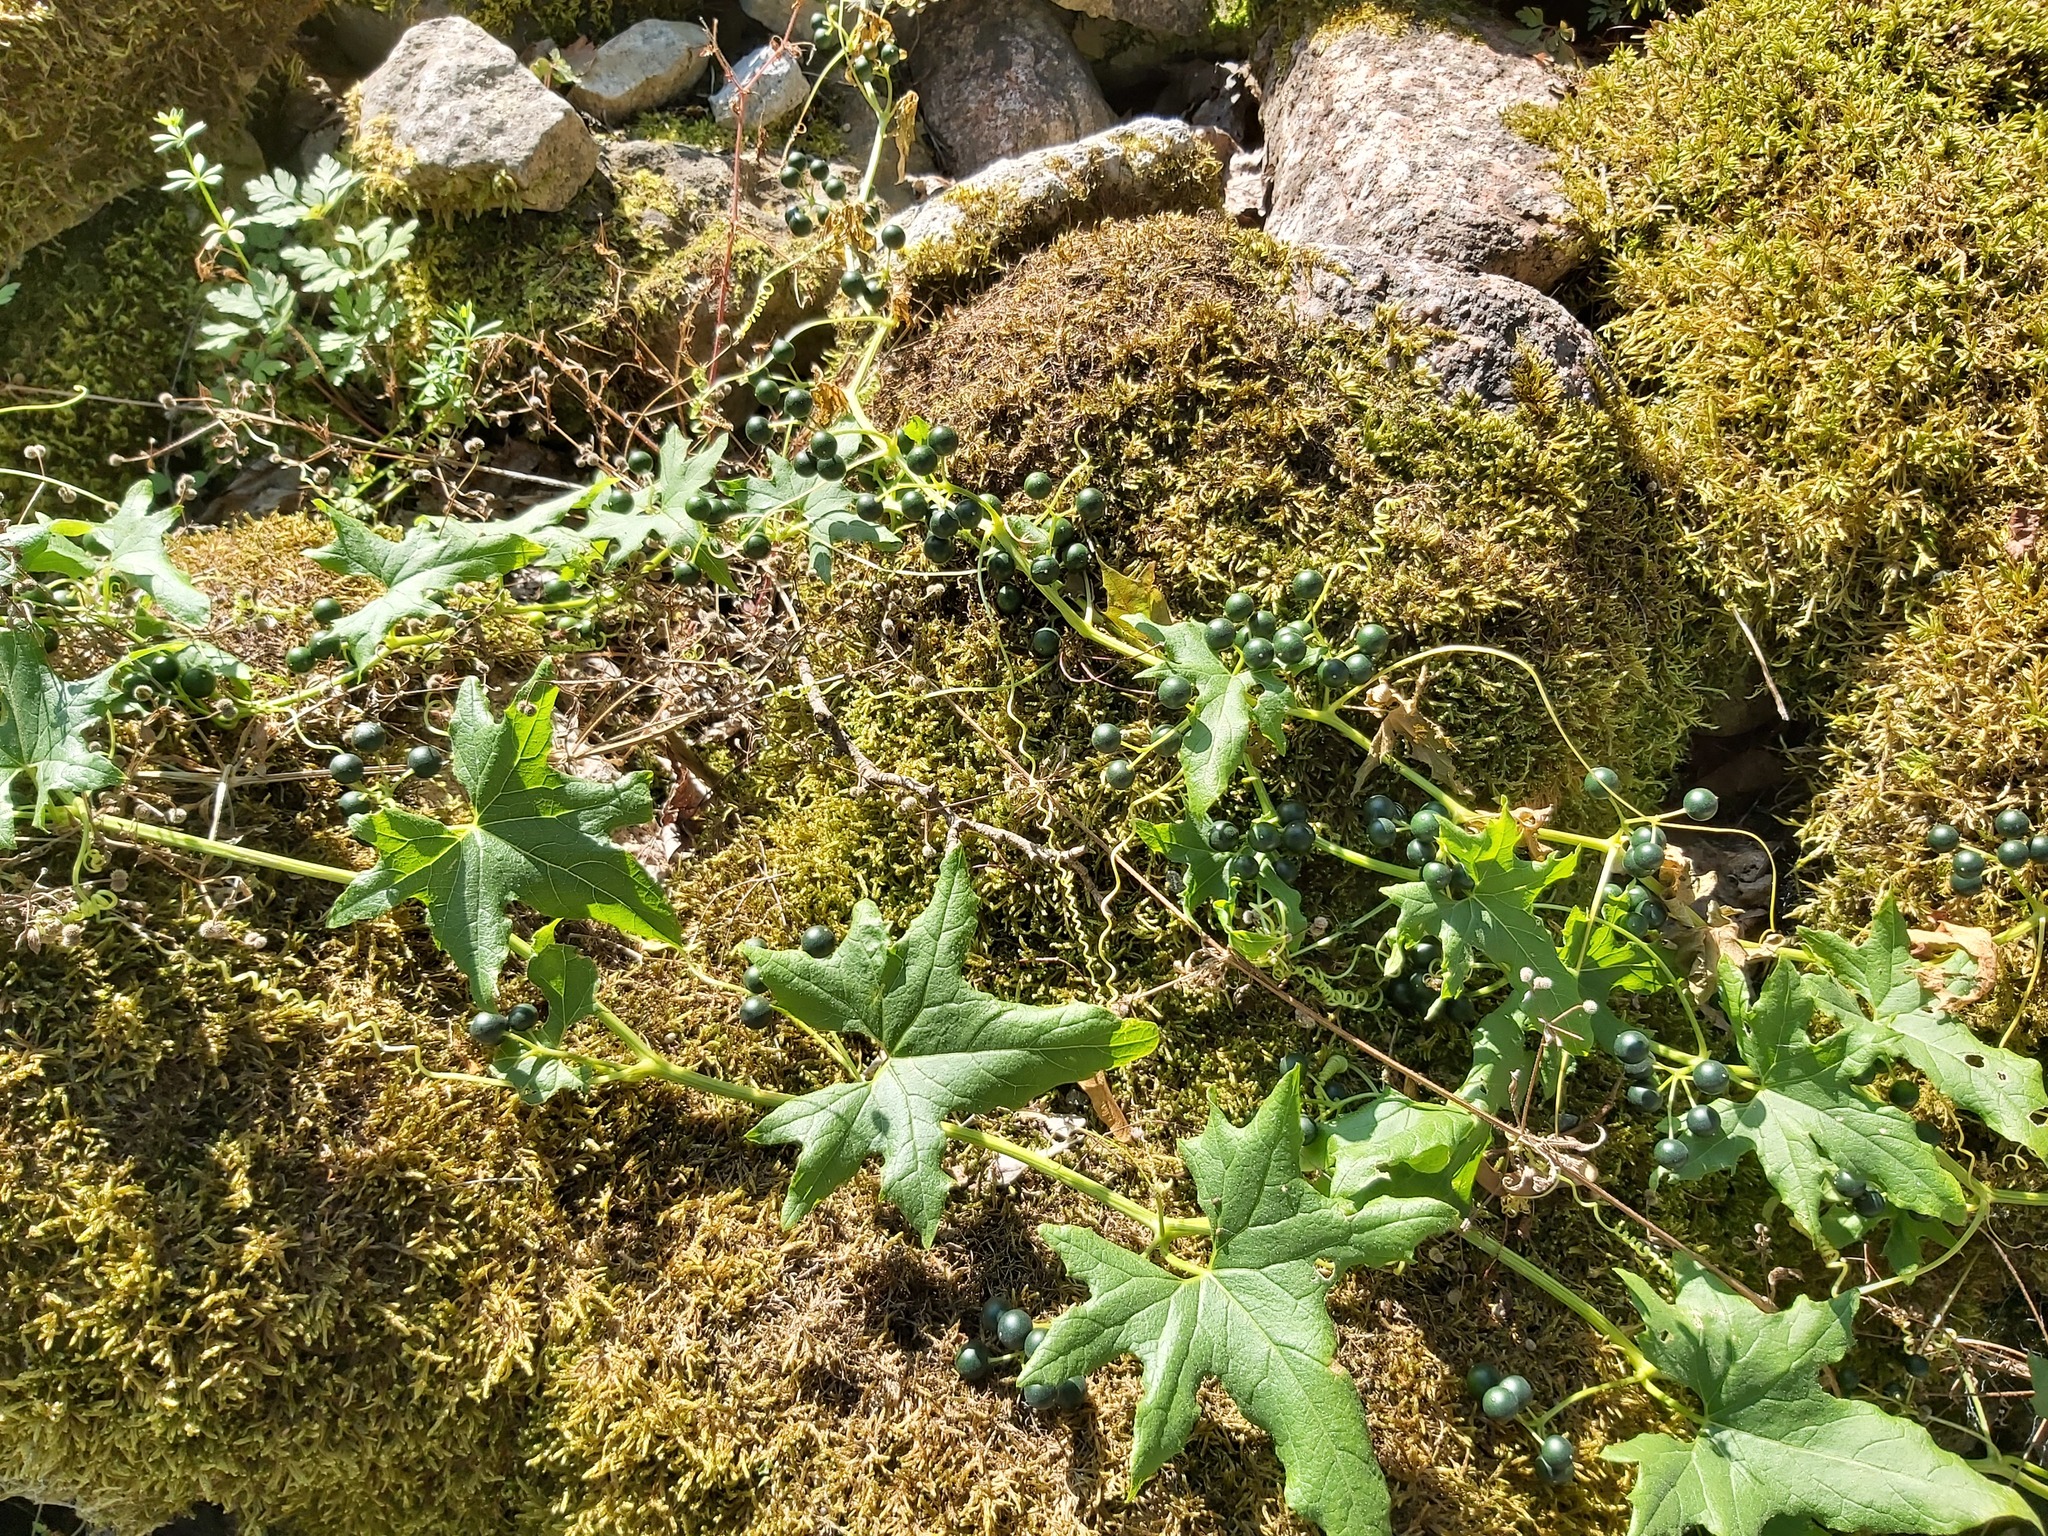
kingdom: Plantae
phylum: Tracheophyta
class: Magnoliopsida
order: Cucurbitales
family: Cucurbitaceae
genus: Bryonia
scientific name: Bryonia alba
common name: White bryony
